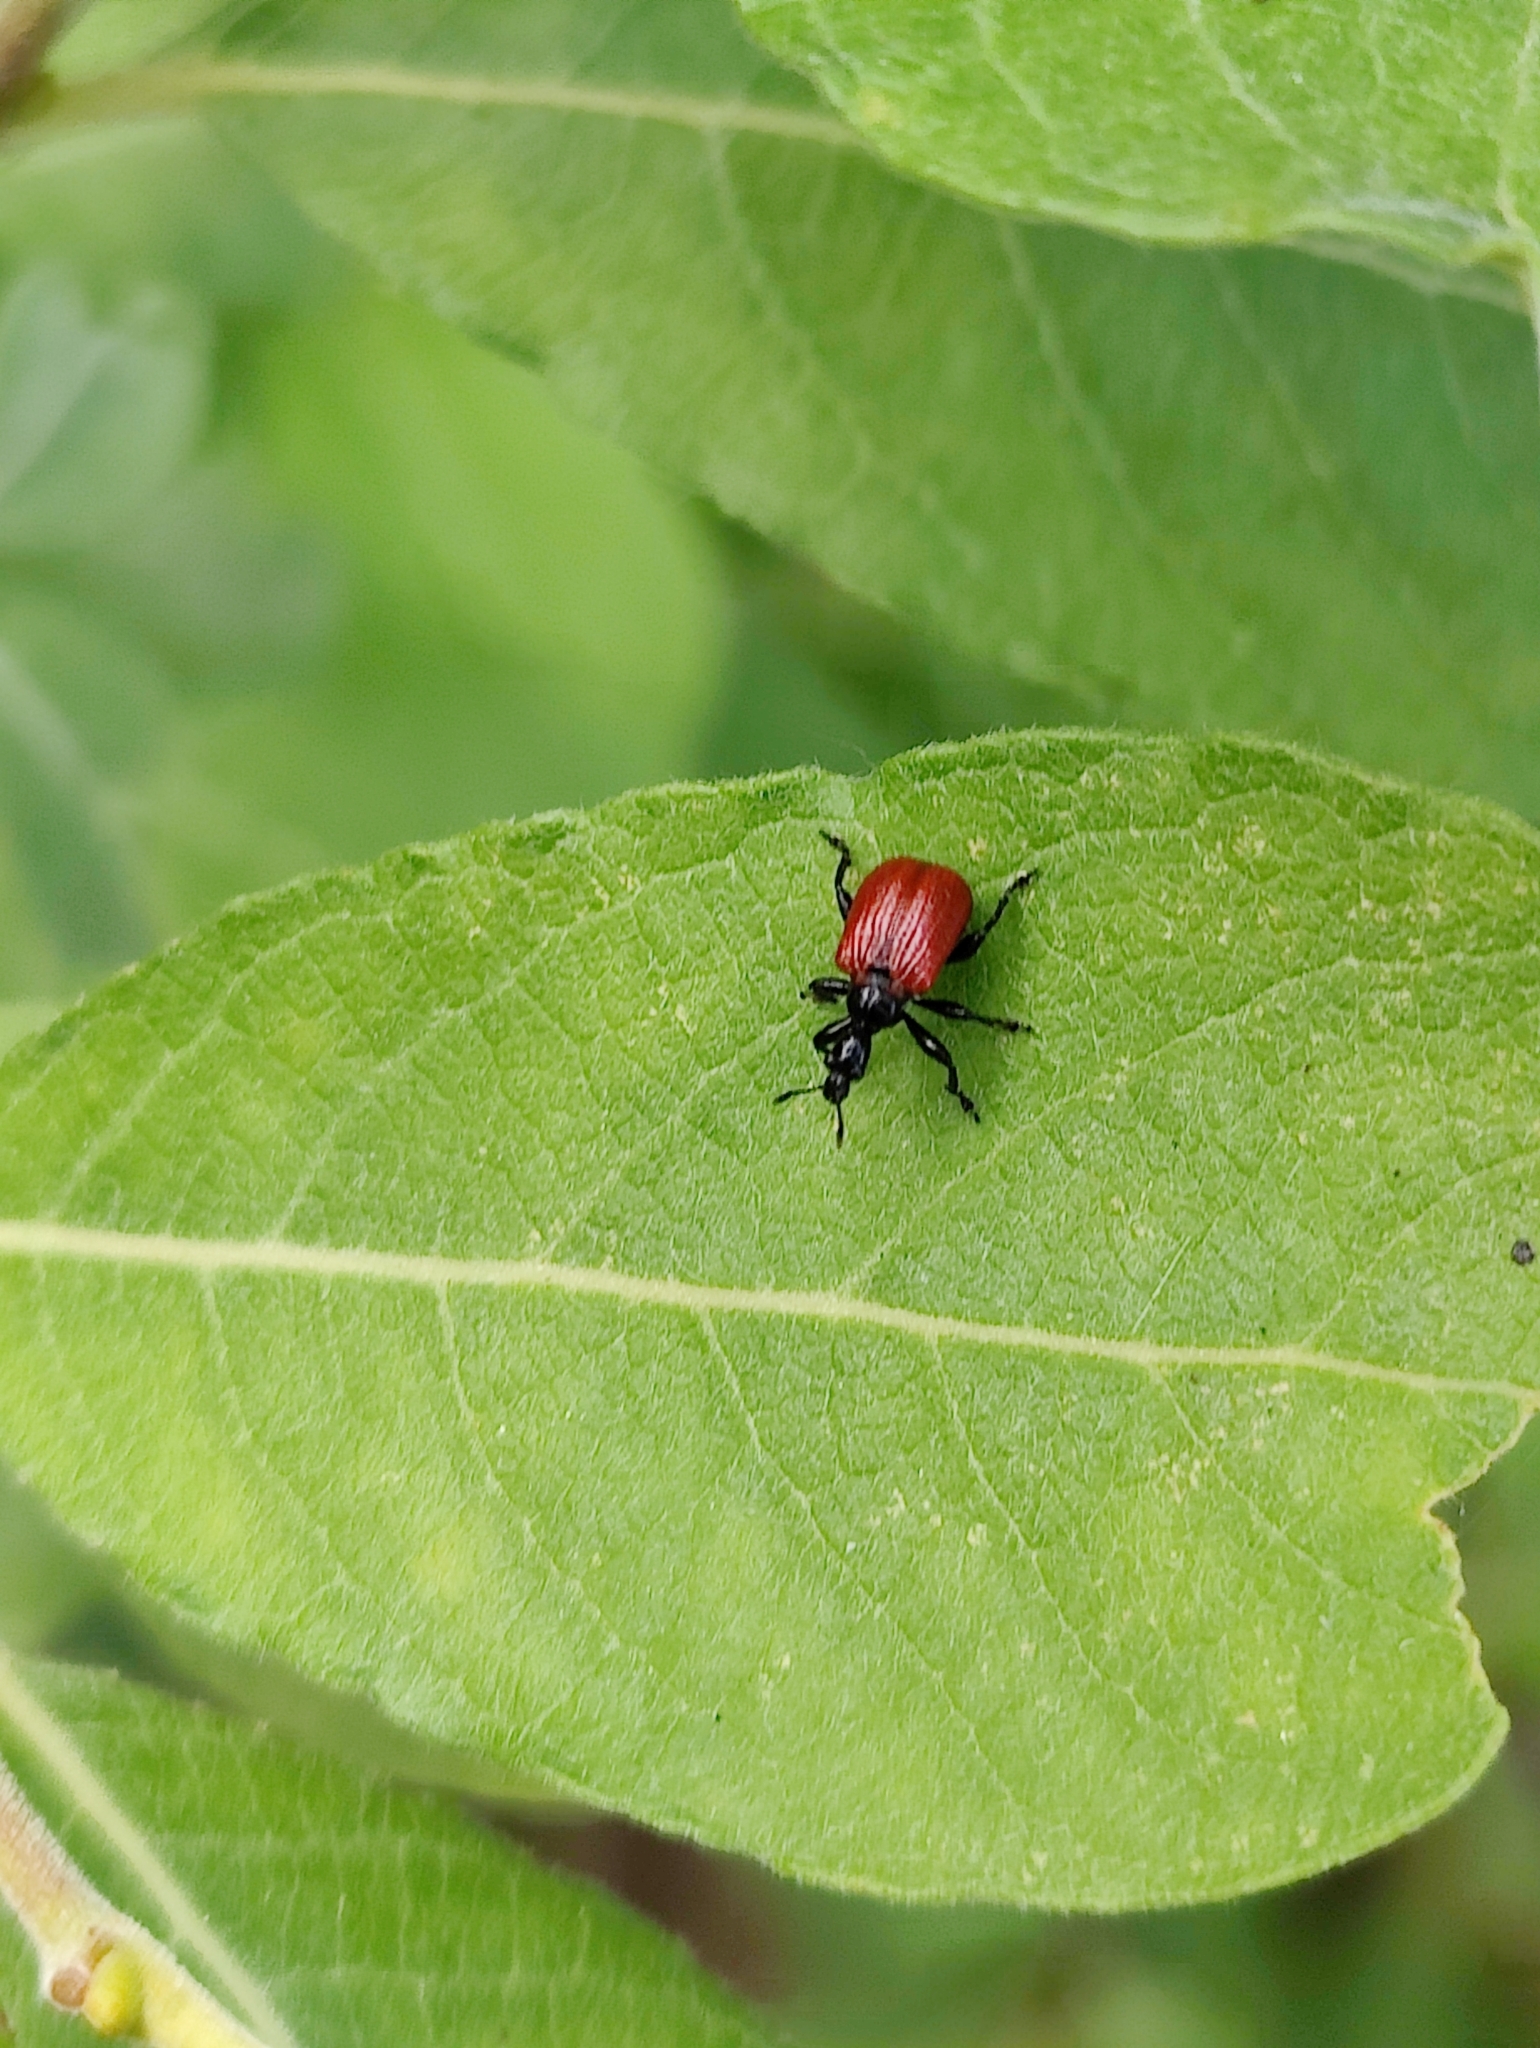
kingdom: Animalia
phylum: Arthropoda
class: Insecta
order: Coleoptera
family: Attelabidae
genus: Apoderus
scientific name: Apoderus coryli
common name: Hazel leaf roller
